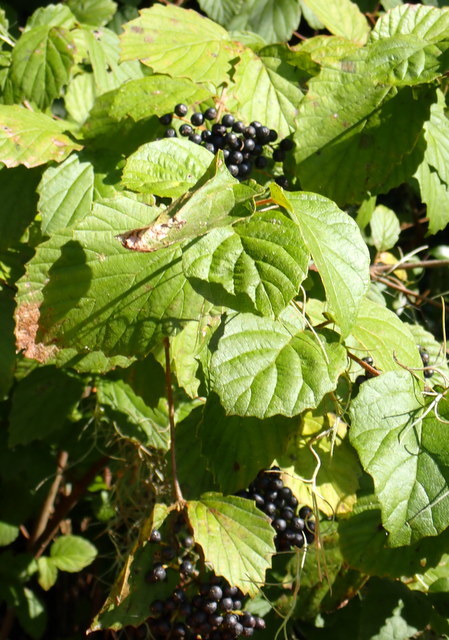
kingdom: Plantae
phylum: Tracheophyta
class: Magnoliopsida
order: Dipsacales
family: Viburnaceae
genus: Viburnum
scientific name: Viburnum scabrellum
